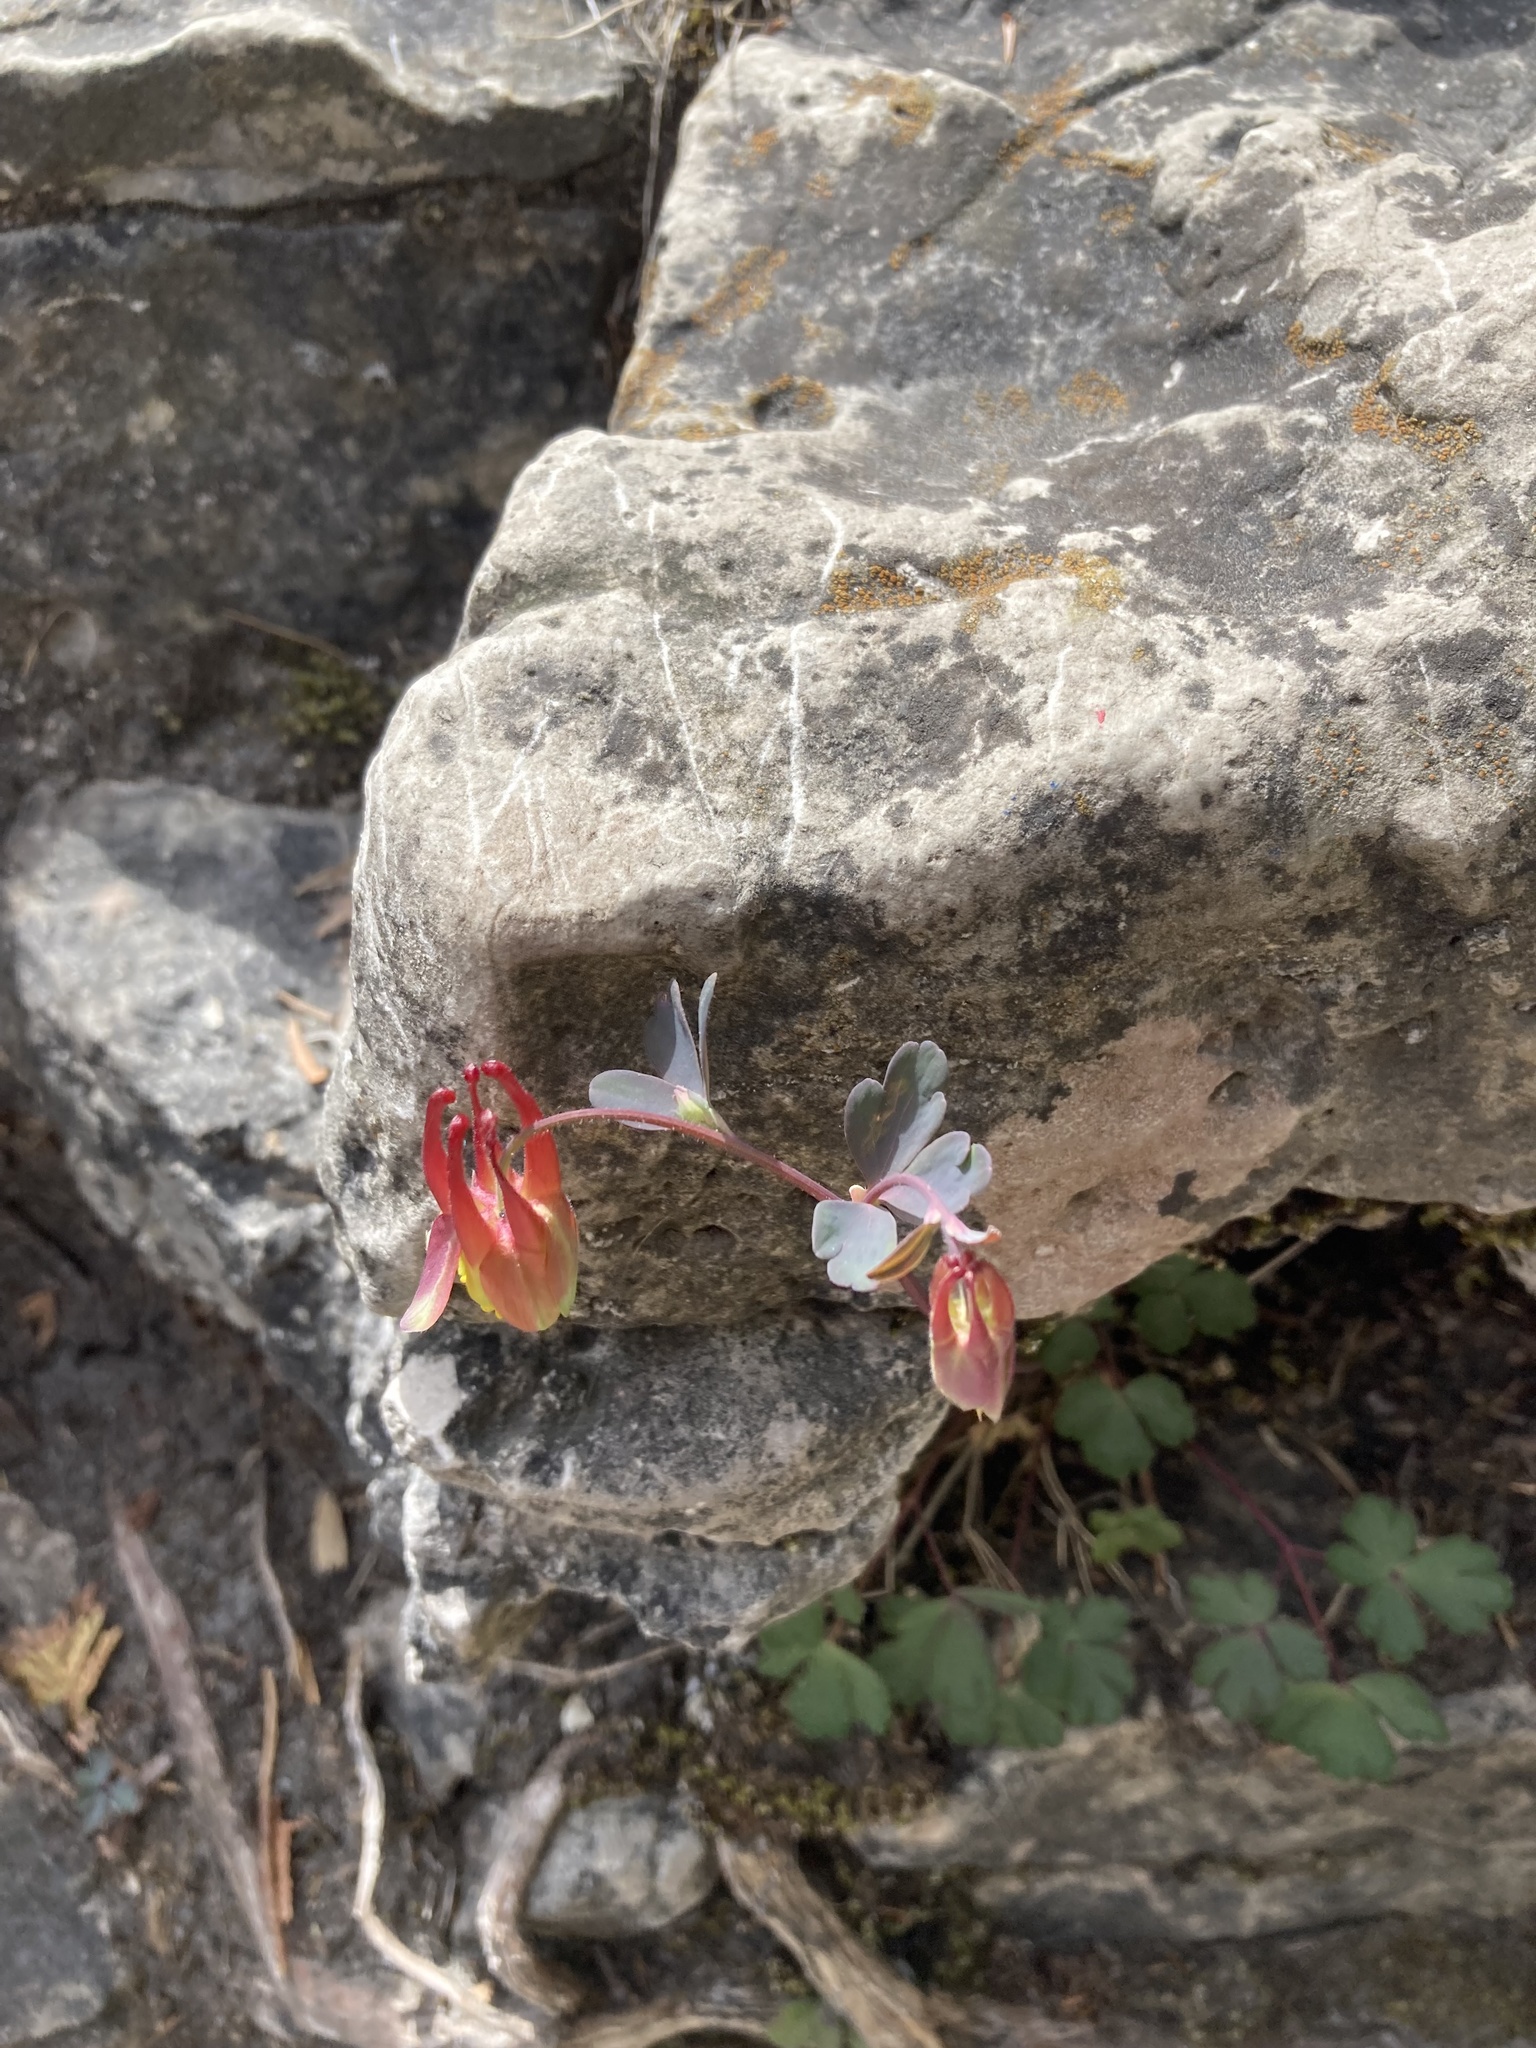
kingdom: Plantae
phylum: Tracheophyta
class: Magnoliopsida
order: Ranunculales
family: Ranunculaceae
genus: Aquilegia
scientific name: Aquilegia canadensis
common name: American columbine
